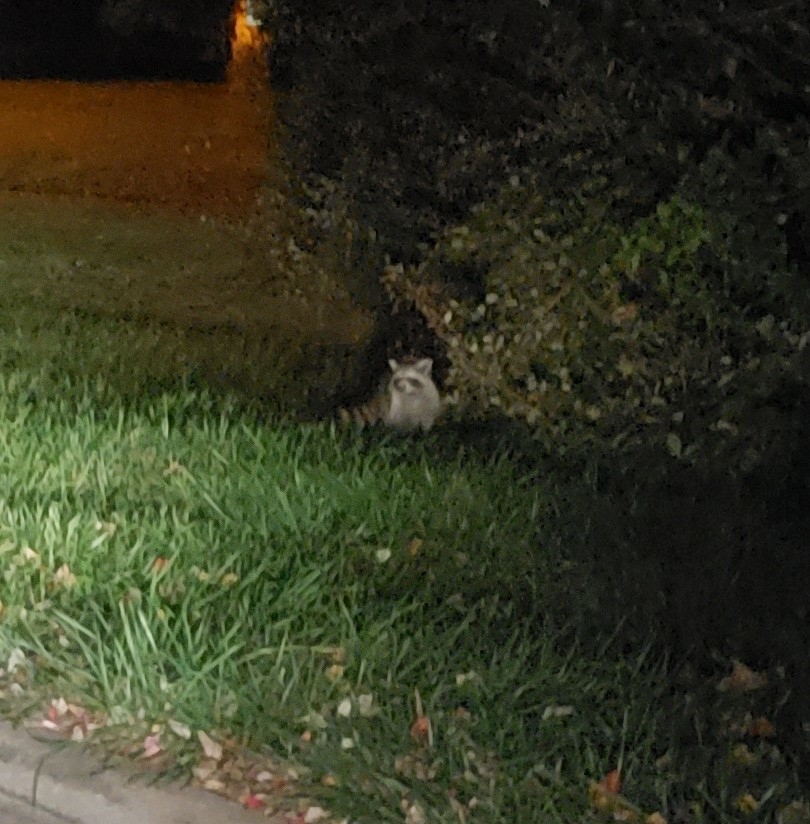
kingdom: Animalia
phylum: Chordata
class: Mammalia
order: Carnivora
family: Procyonidae
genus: Procyon
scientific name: Procyon lotor
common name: Raccoon
